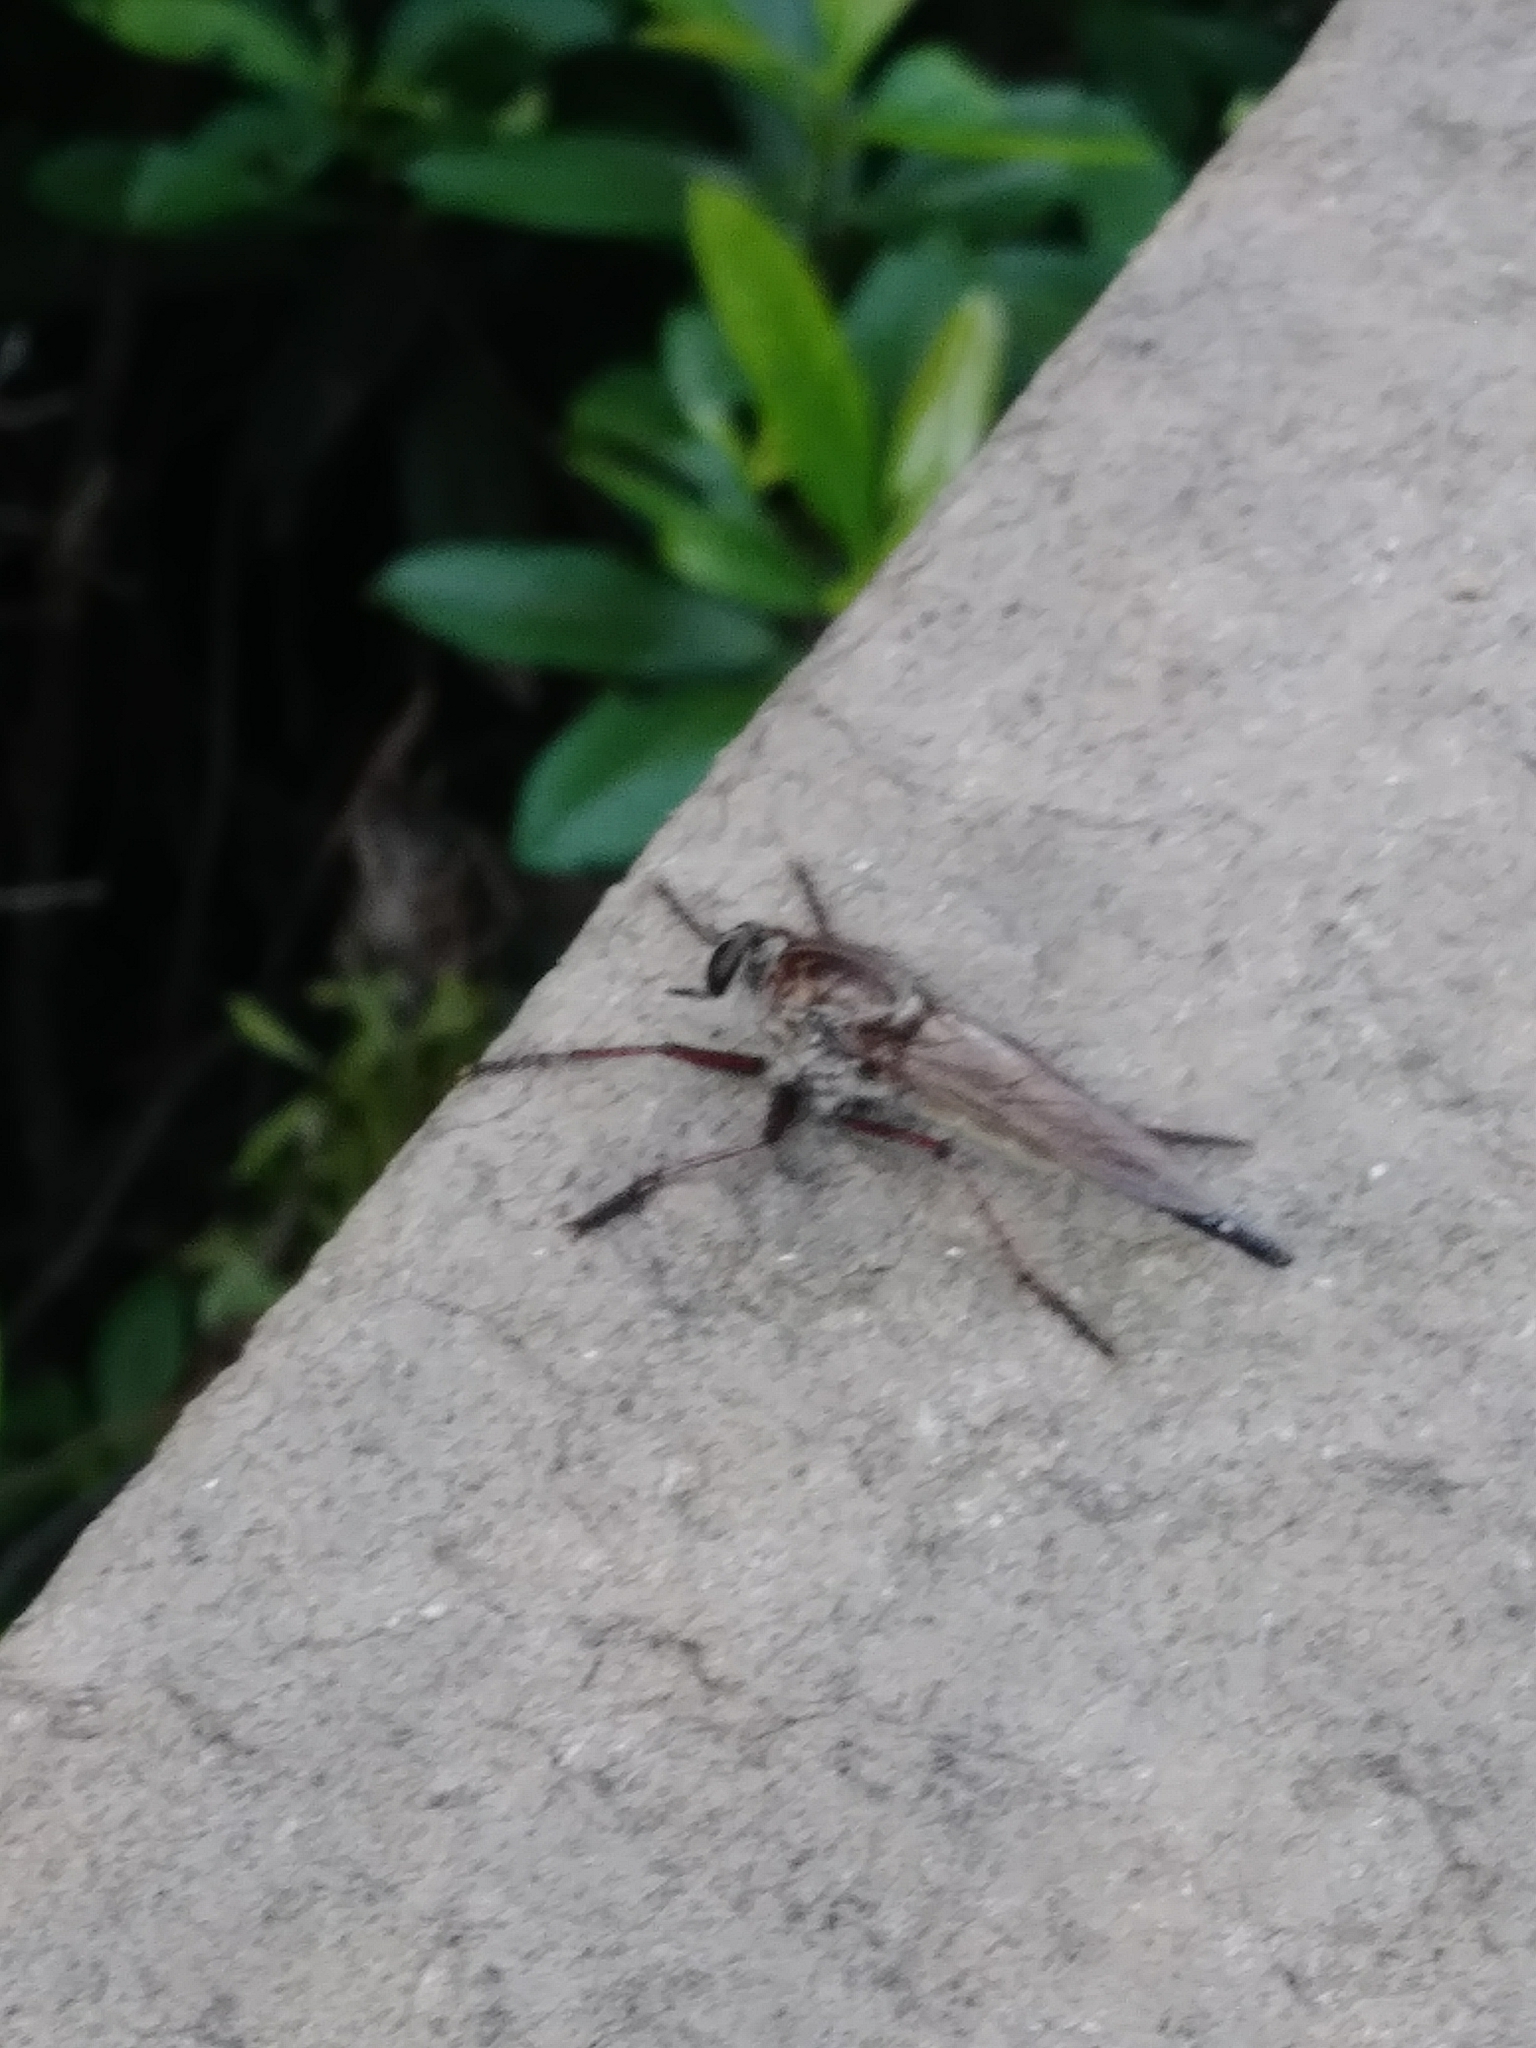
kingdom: Animalia
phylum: Arthropoda
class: Insecta
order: Diptera
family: Asilidae
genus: Proctacanthus
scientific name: Proctacanthus longus
